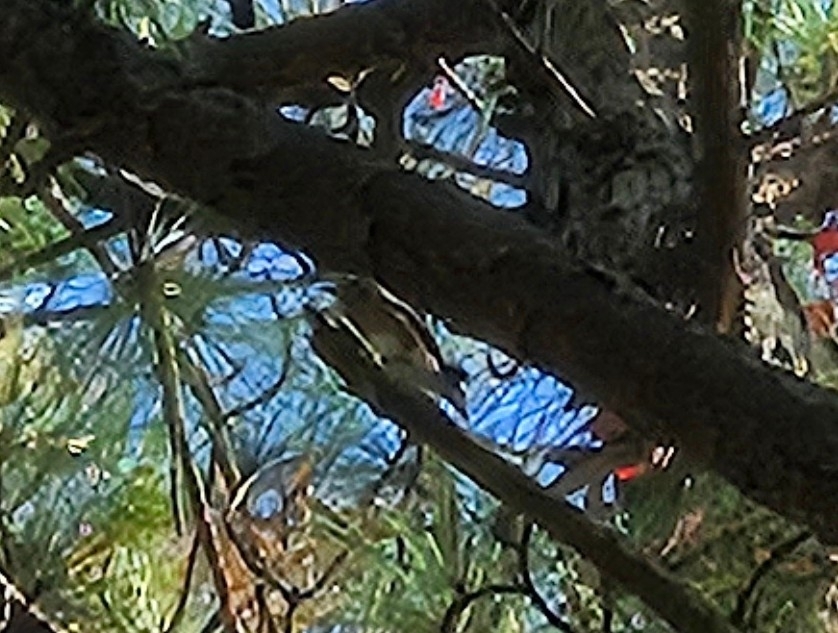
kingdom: Animalia
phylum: Chordata
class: Aves
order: Passeriformes
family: Turdidae
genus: Sialia
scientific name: Sialia sialis
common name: Eastern bluebird
